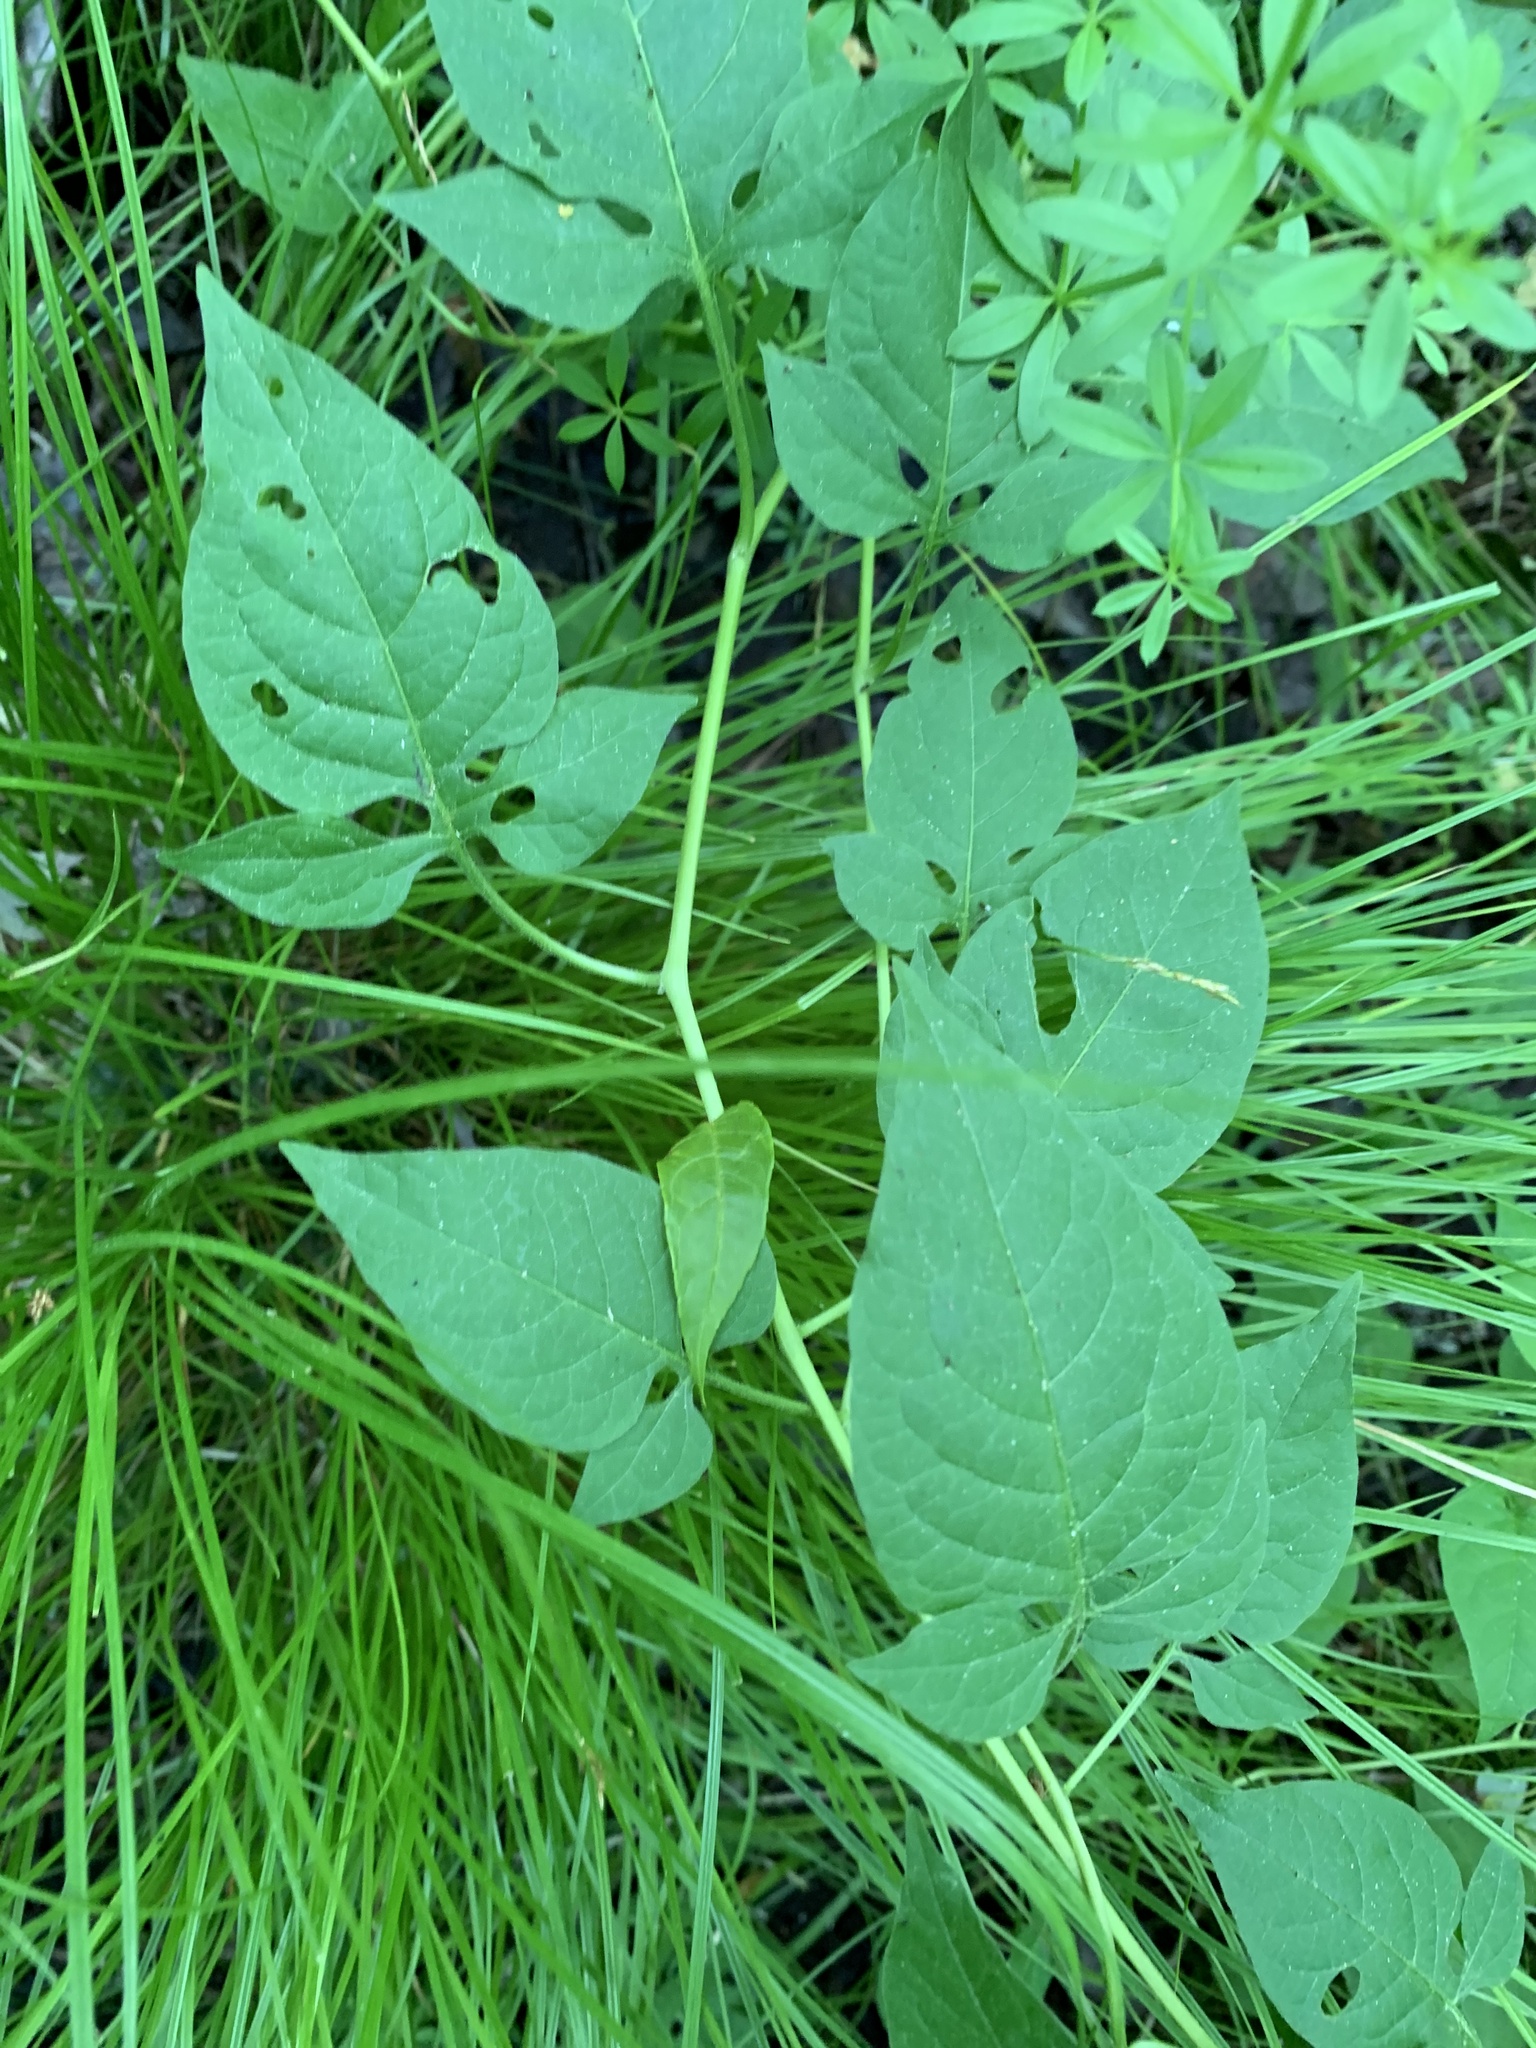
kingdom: Plantae
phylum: Tracheophyta
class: Magnoliopsida
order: Solanales
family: Solanaceae
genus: Solanum
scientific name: Solanum dulcamara
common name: Climbing nightshade
